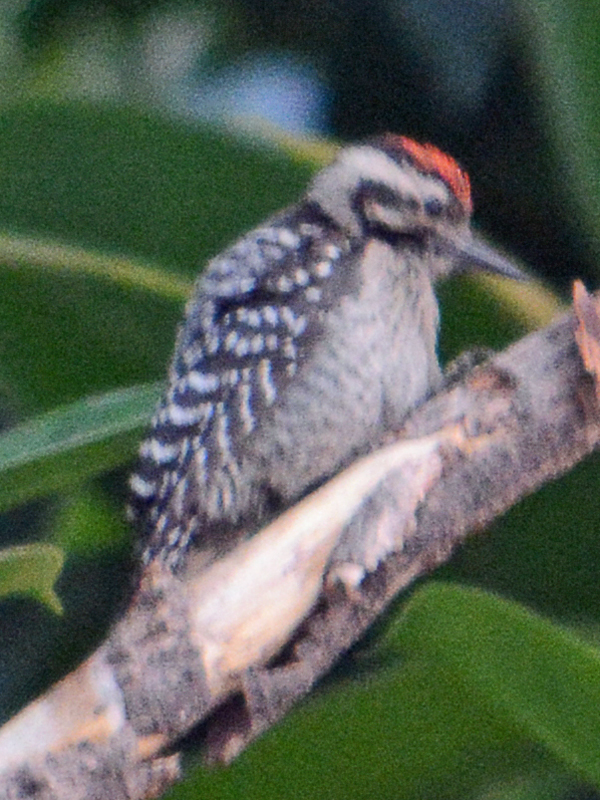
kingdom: Animalia
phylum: Chordata
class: Aves
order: Piciformes
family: Picidae
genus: Dryobates
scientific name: Dryobates scalaris
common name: Ladder-backed woodpecker
